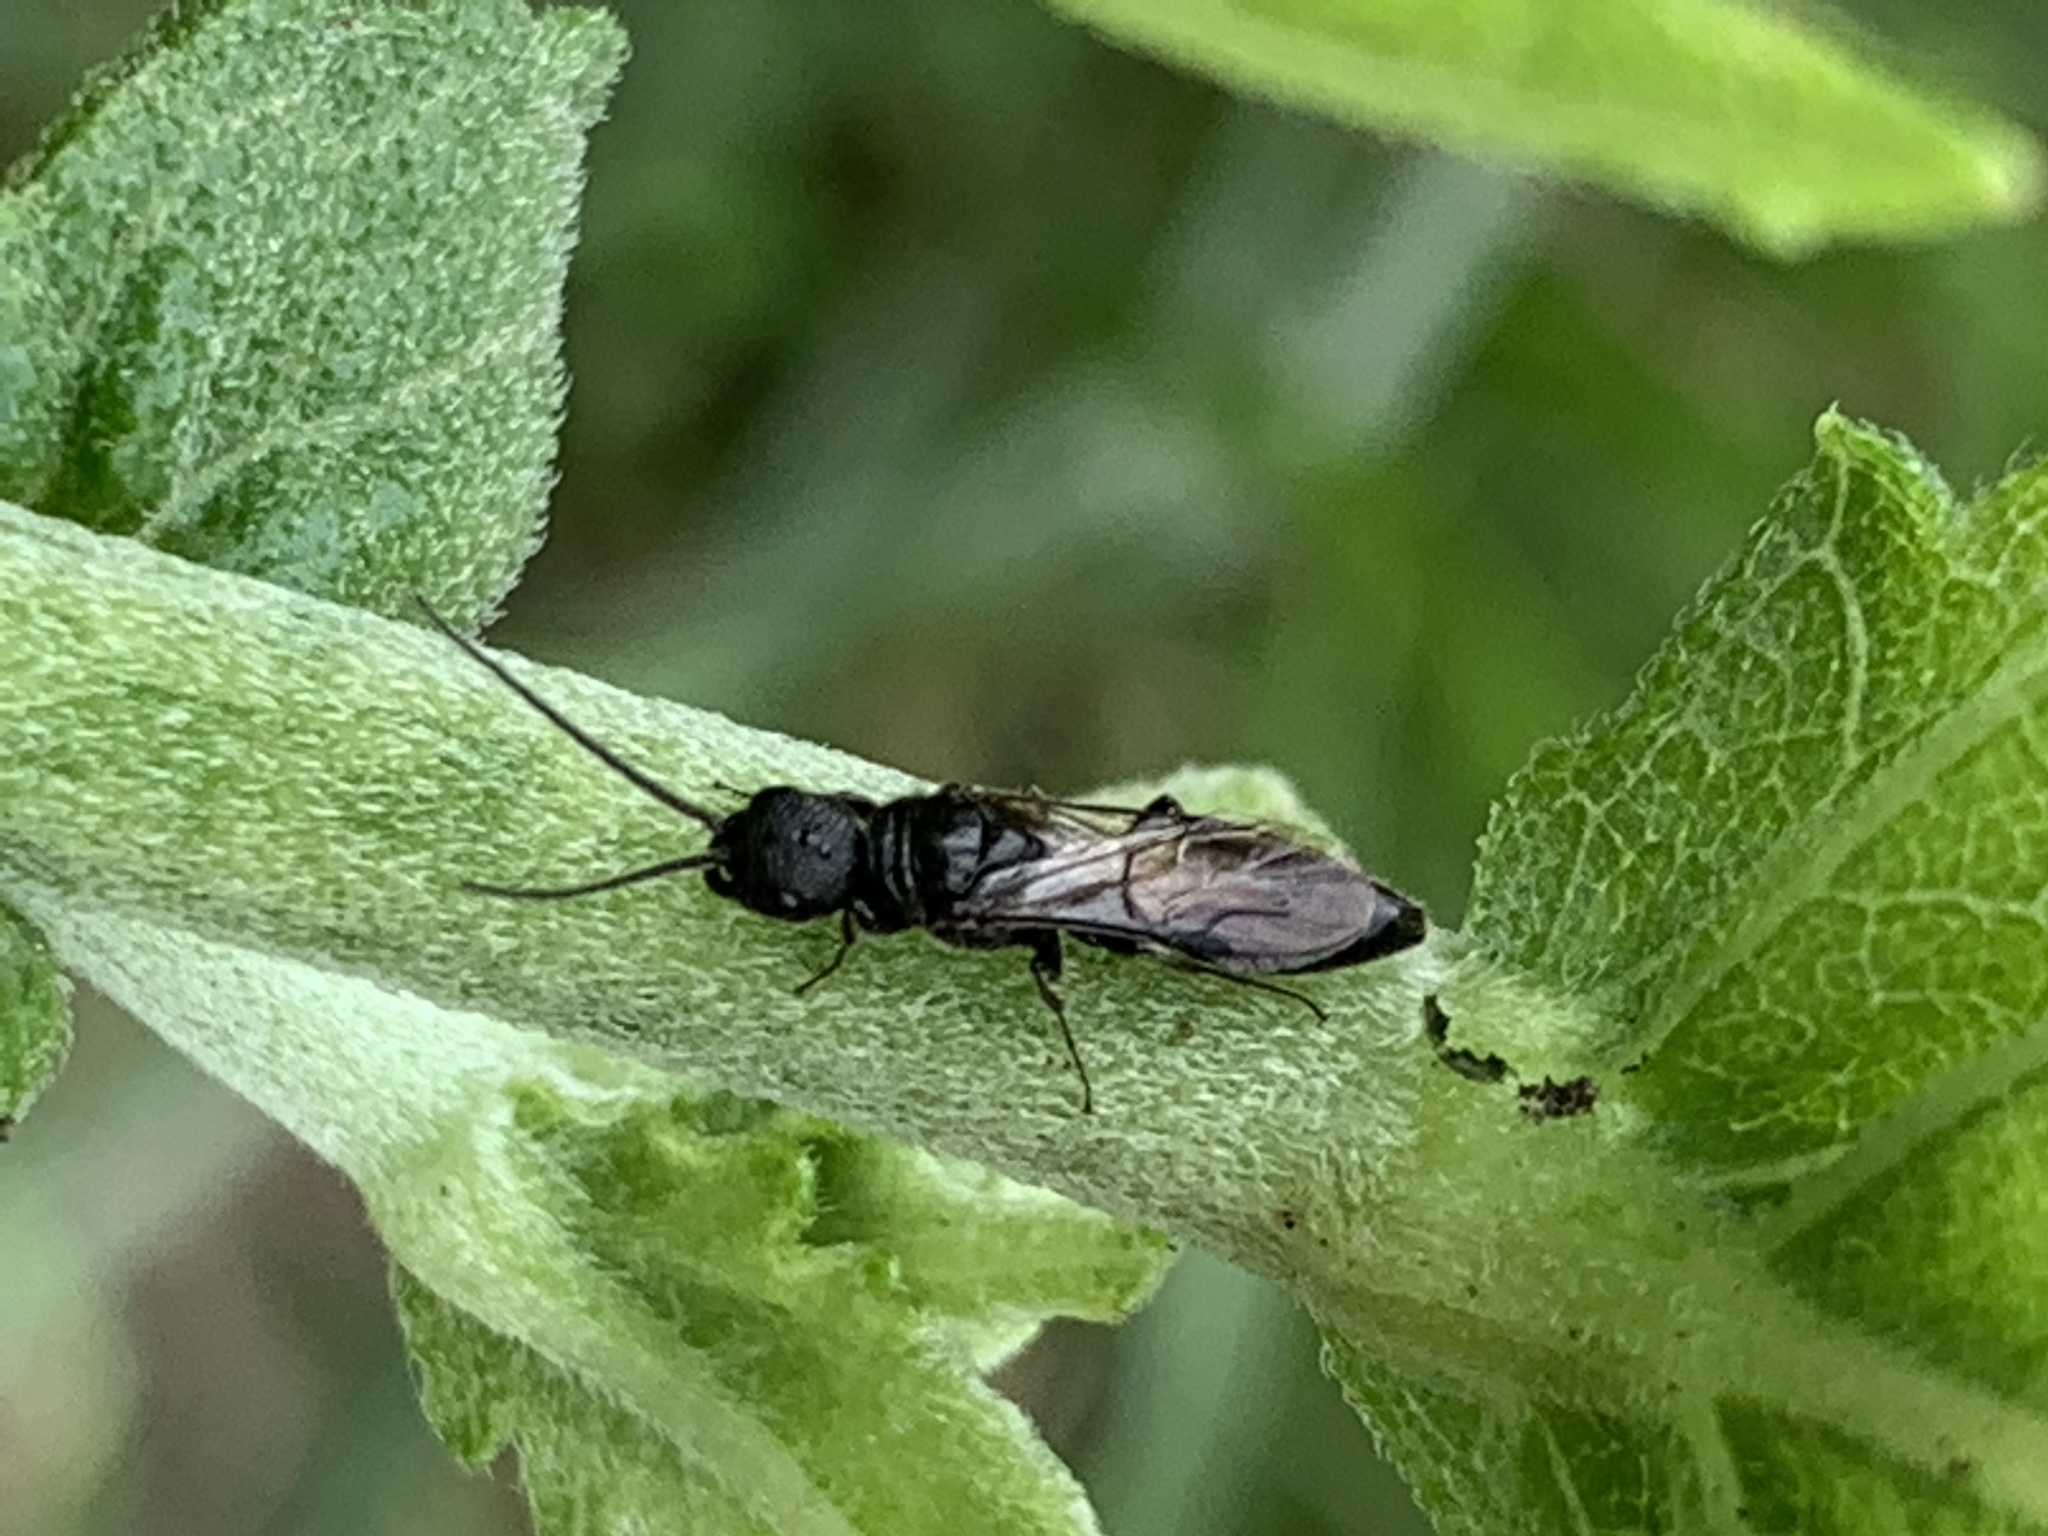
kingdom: Animalia
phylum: Arthropoda
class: Insecta
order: Hymenoptera
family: Bethylidae
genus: Pristepyris
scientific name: Pristepyris
